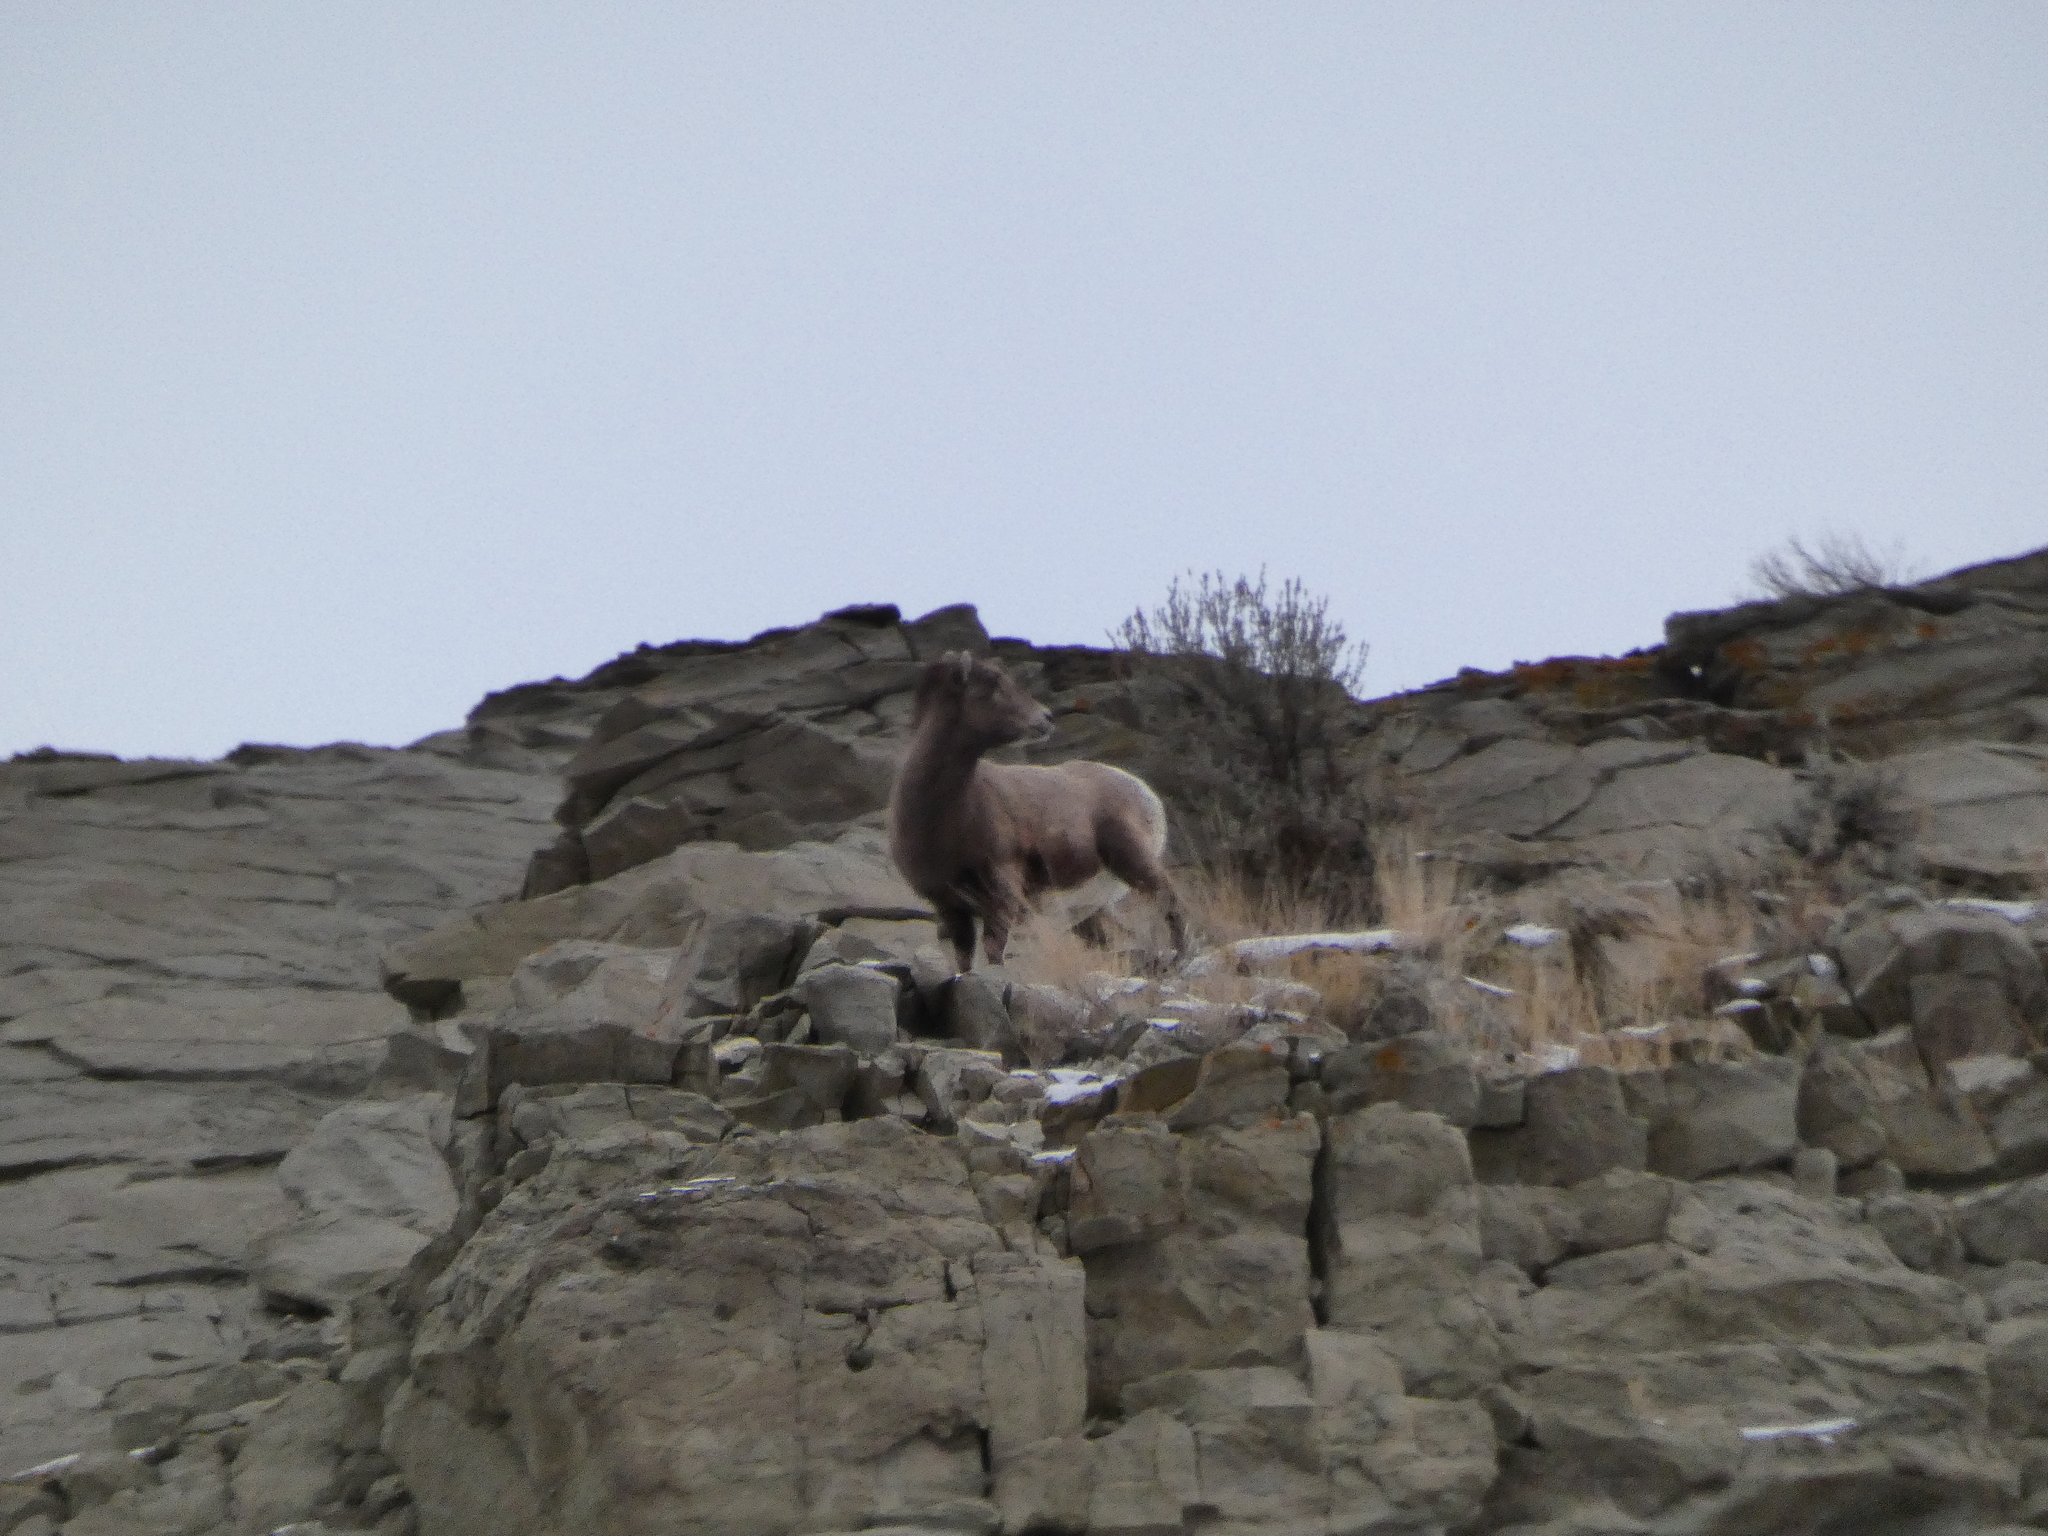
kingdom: Animalia
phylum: Chordata
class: Mammalia
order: Artiodactyla
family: Bovidae
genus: Ovis
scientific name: Ovis canadensis
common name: Bighorn sheep
